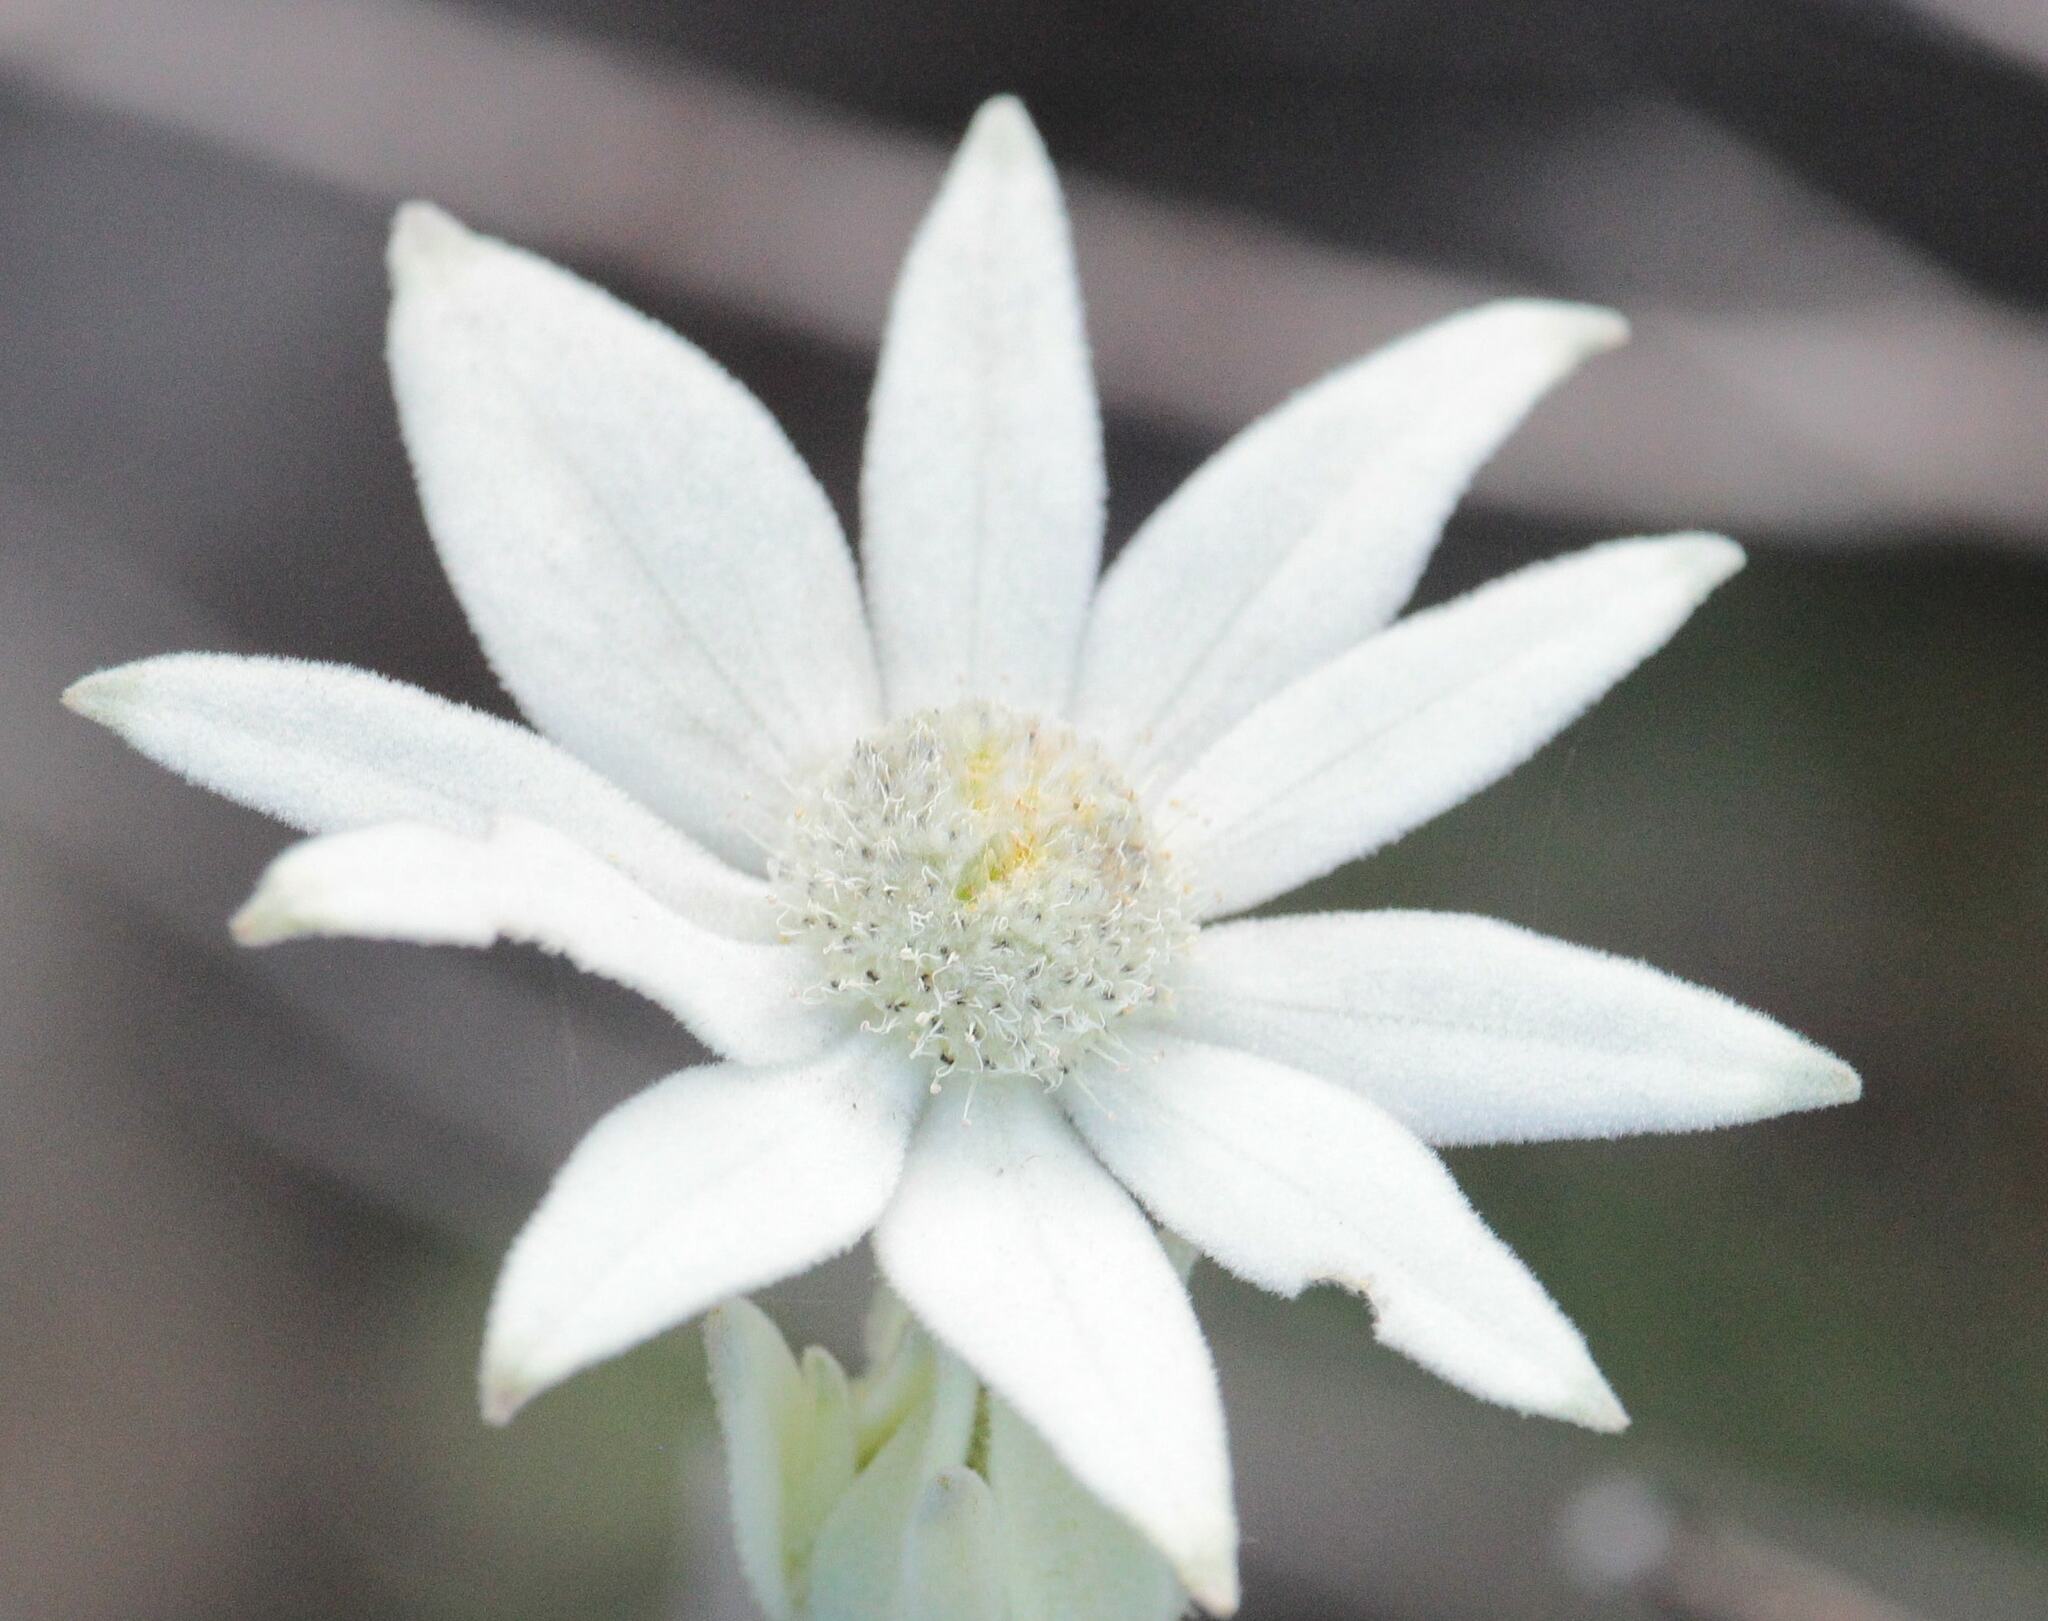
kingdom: Plantae
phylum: Tracheophyta
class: Magnoliopsida
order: Apiales
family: Apiaceae
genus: Actinotus
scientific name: Actinotus helianthi
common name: Flannel-flower
